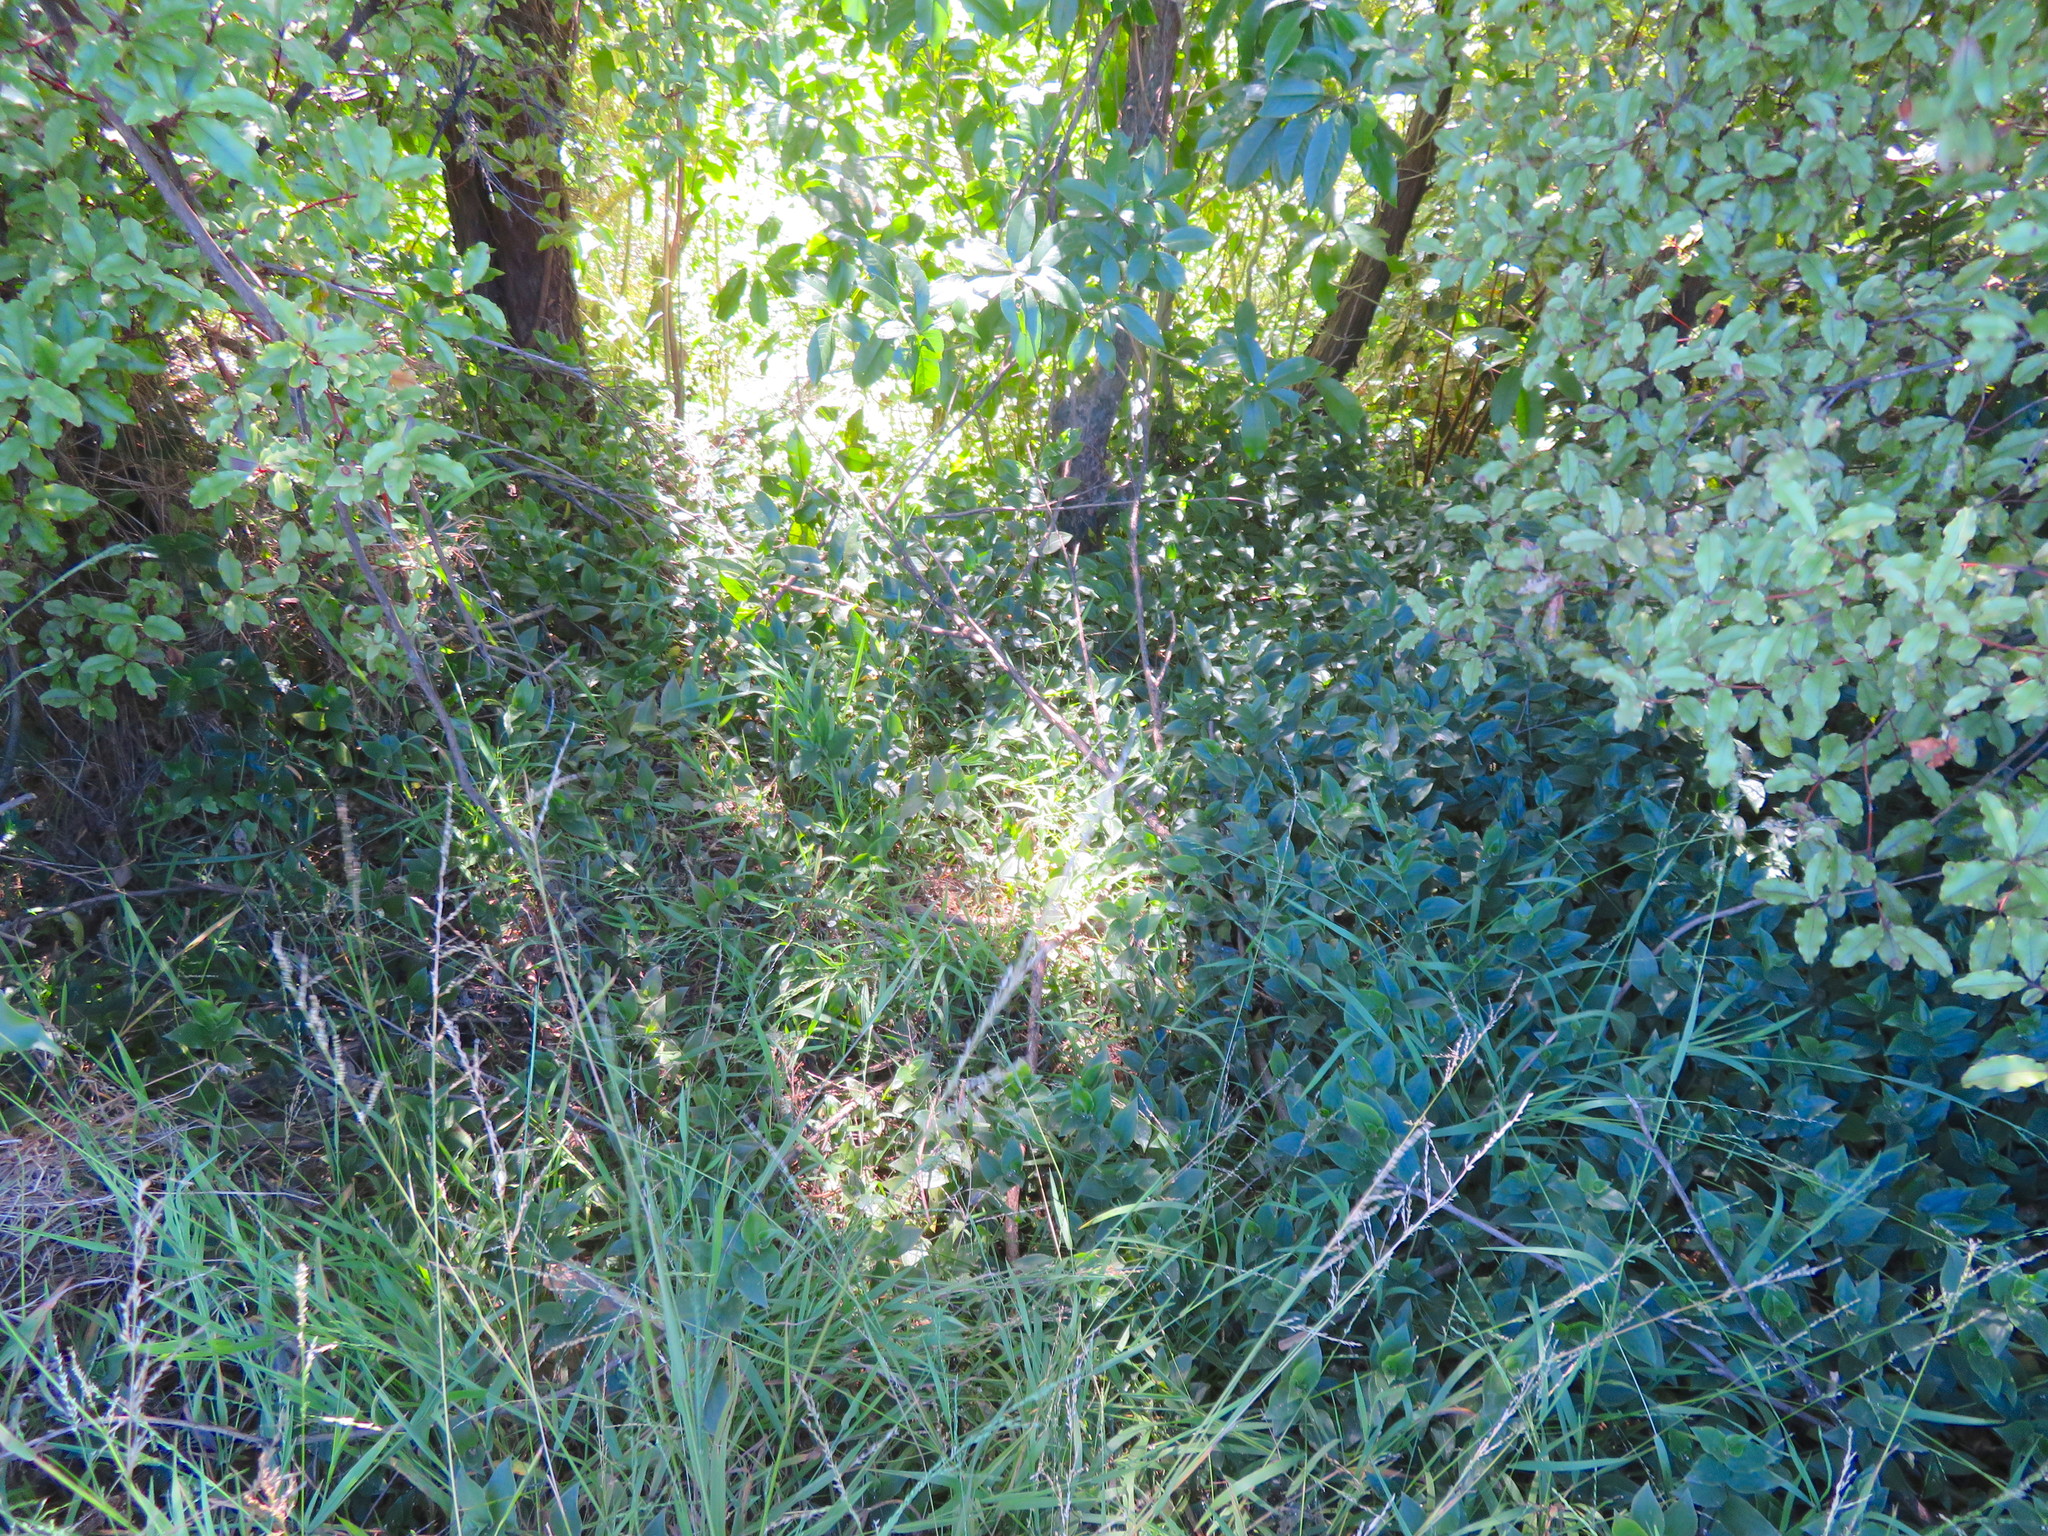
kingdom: Plantae
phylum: Tracheophyta
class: Liliopsida
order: Poales
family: Poaceae
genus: Ehrharta
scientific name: Ehrharta erecta
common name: Panic veldtgrass
